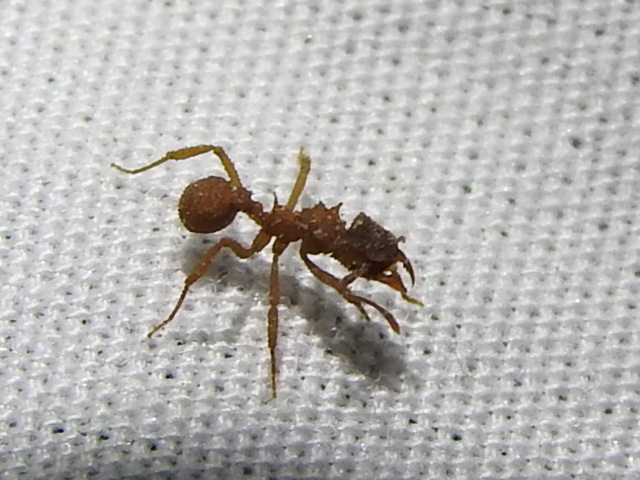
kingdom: Animalia
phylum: Arthropoda
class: Insecta
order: Hymenoptera
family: Formicidae
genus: Mycetomoellerius
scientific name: Mycetomoellerius
